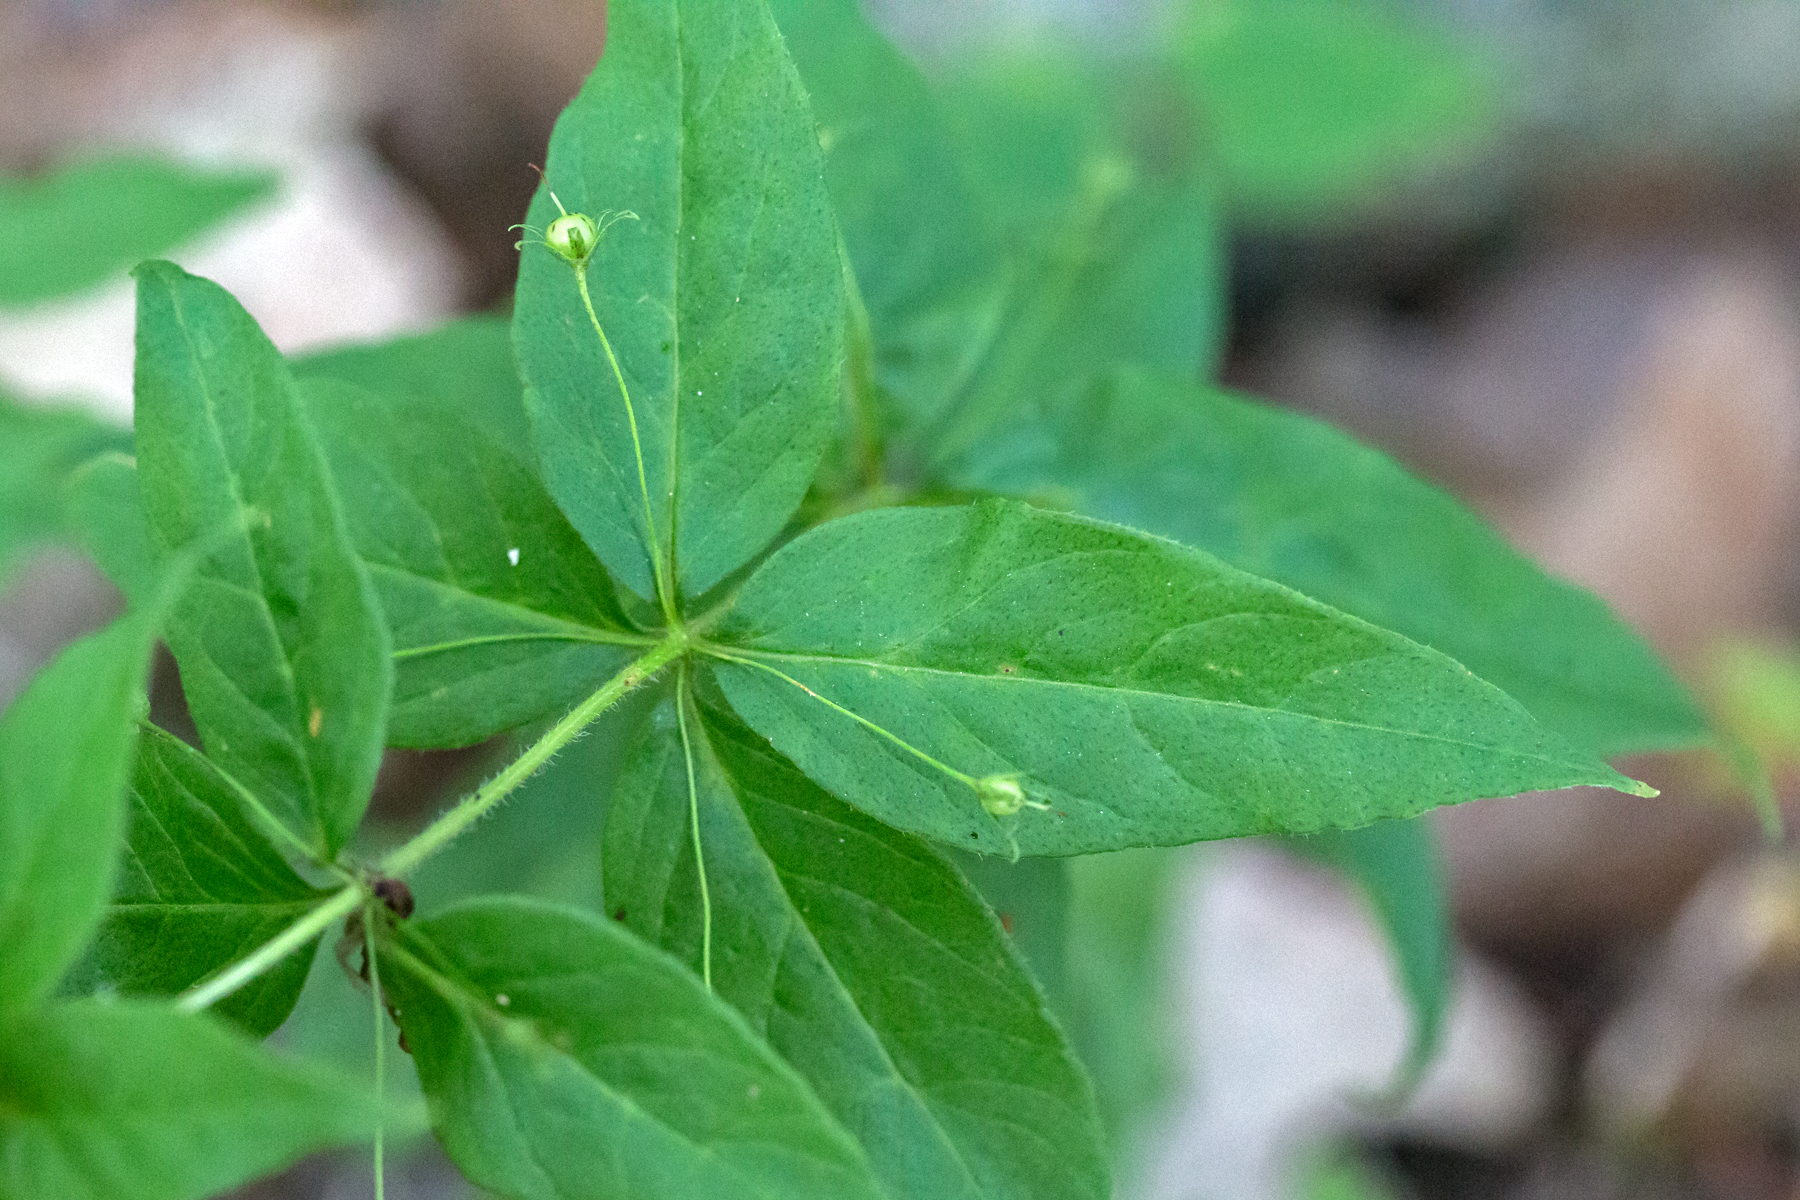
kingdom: Plantae
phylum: Tracheophyta
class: Magnoliopsida
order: Ericales
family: Primulaceae
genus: Lysimachia
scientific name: Lysimachia quadrifolia
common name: Whorled loosestrife
